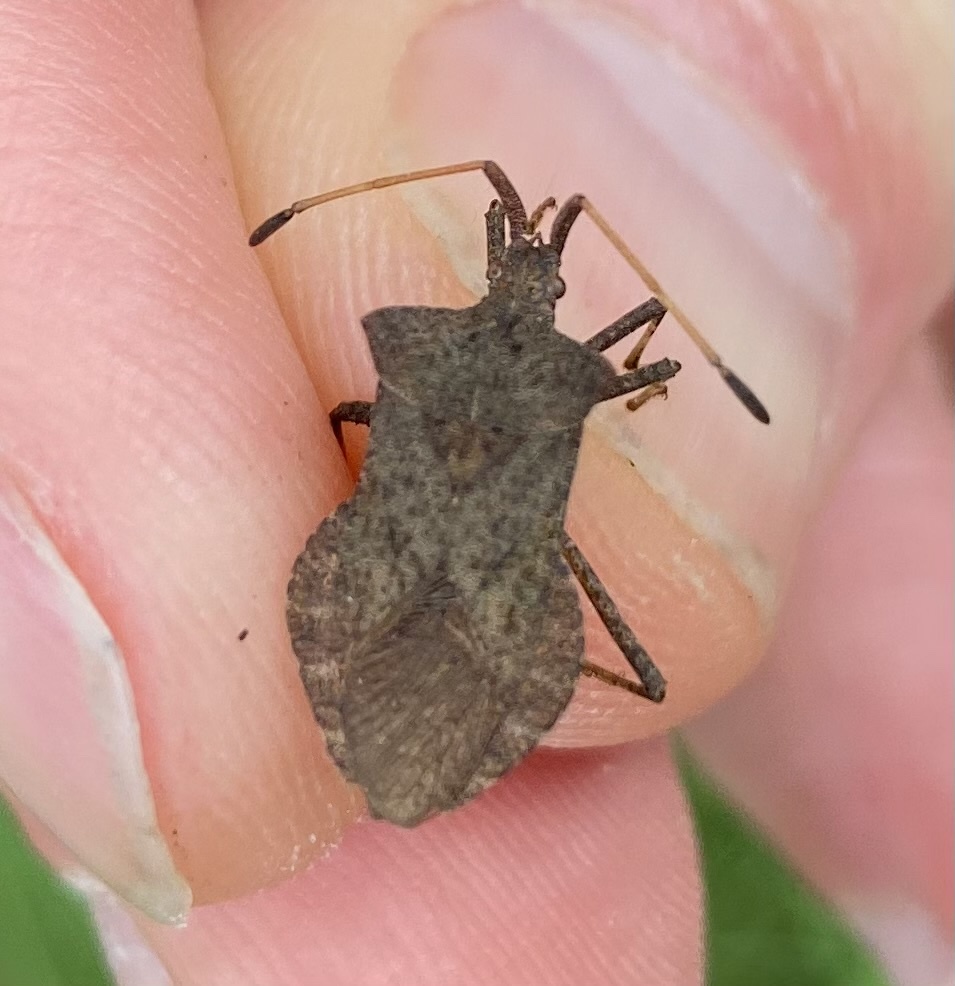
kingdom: Animalia
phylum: Arthropoda
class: Insecta
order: Hemiptera
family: Coreidae
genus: Coreus
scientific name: Coreus marginatus
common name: Dock bug
